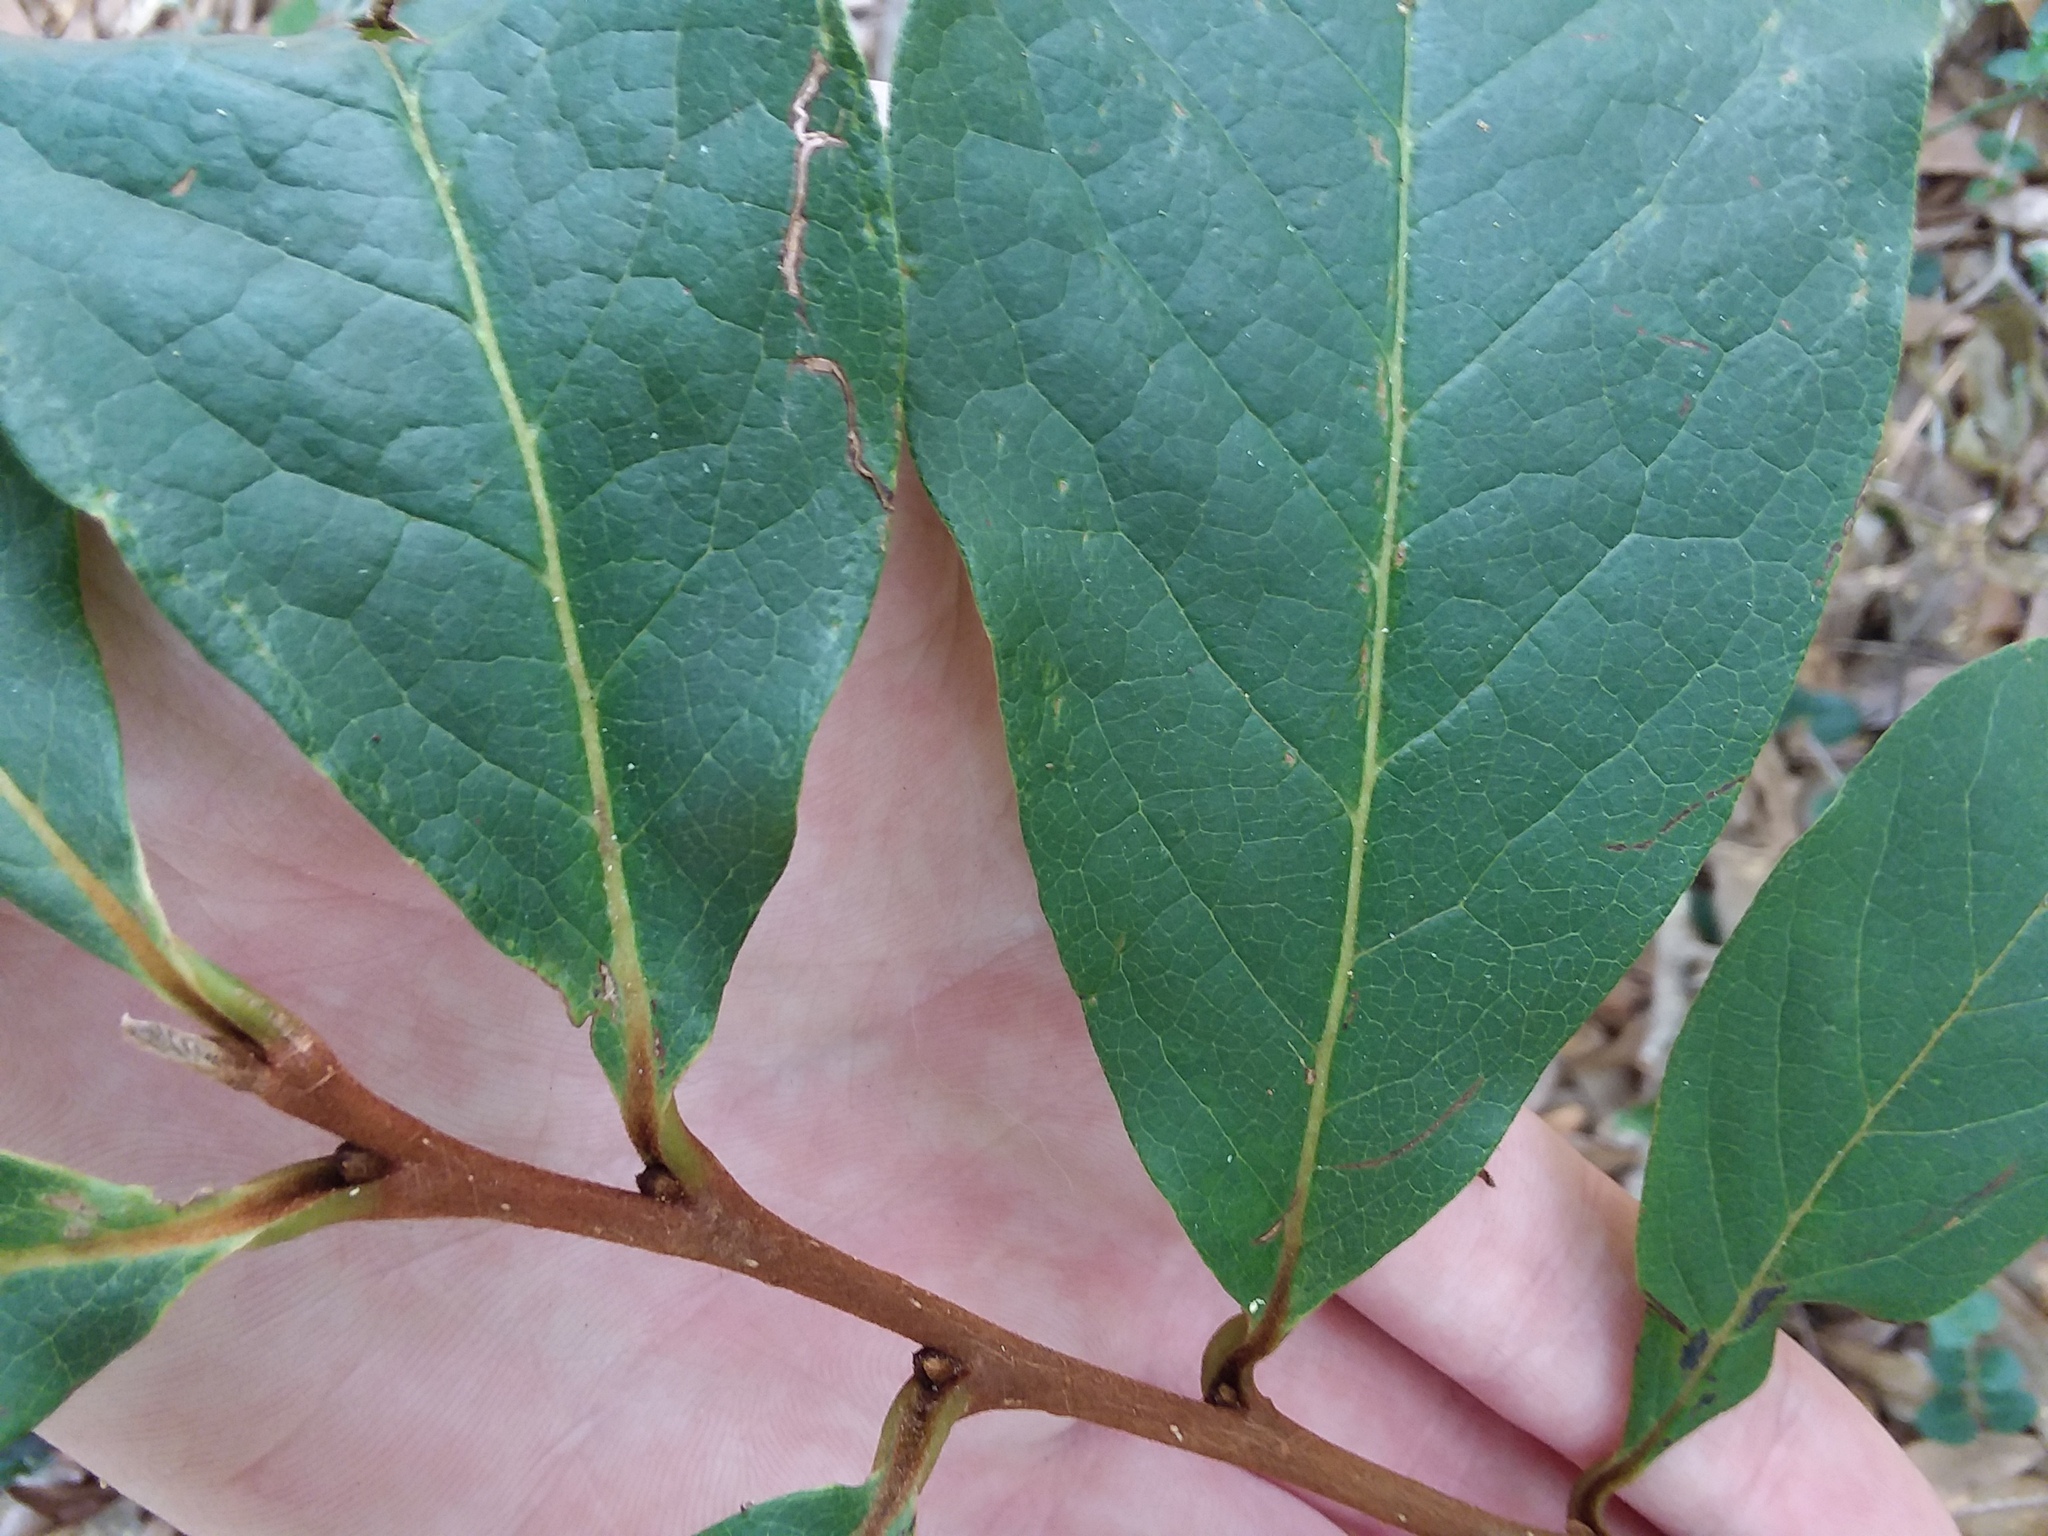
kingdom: Plantae
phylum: Tracheophyta
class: Magnoliopsida
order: Magnoliales
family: Annonaceae
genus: Asimina
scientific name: Asimina parviflora
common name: Dwarf pawpaw
